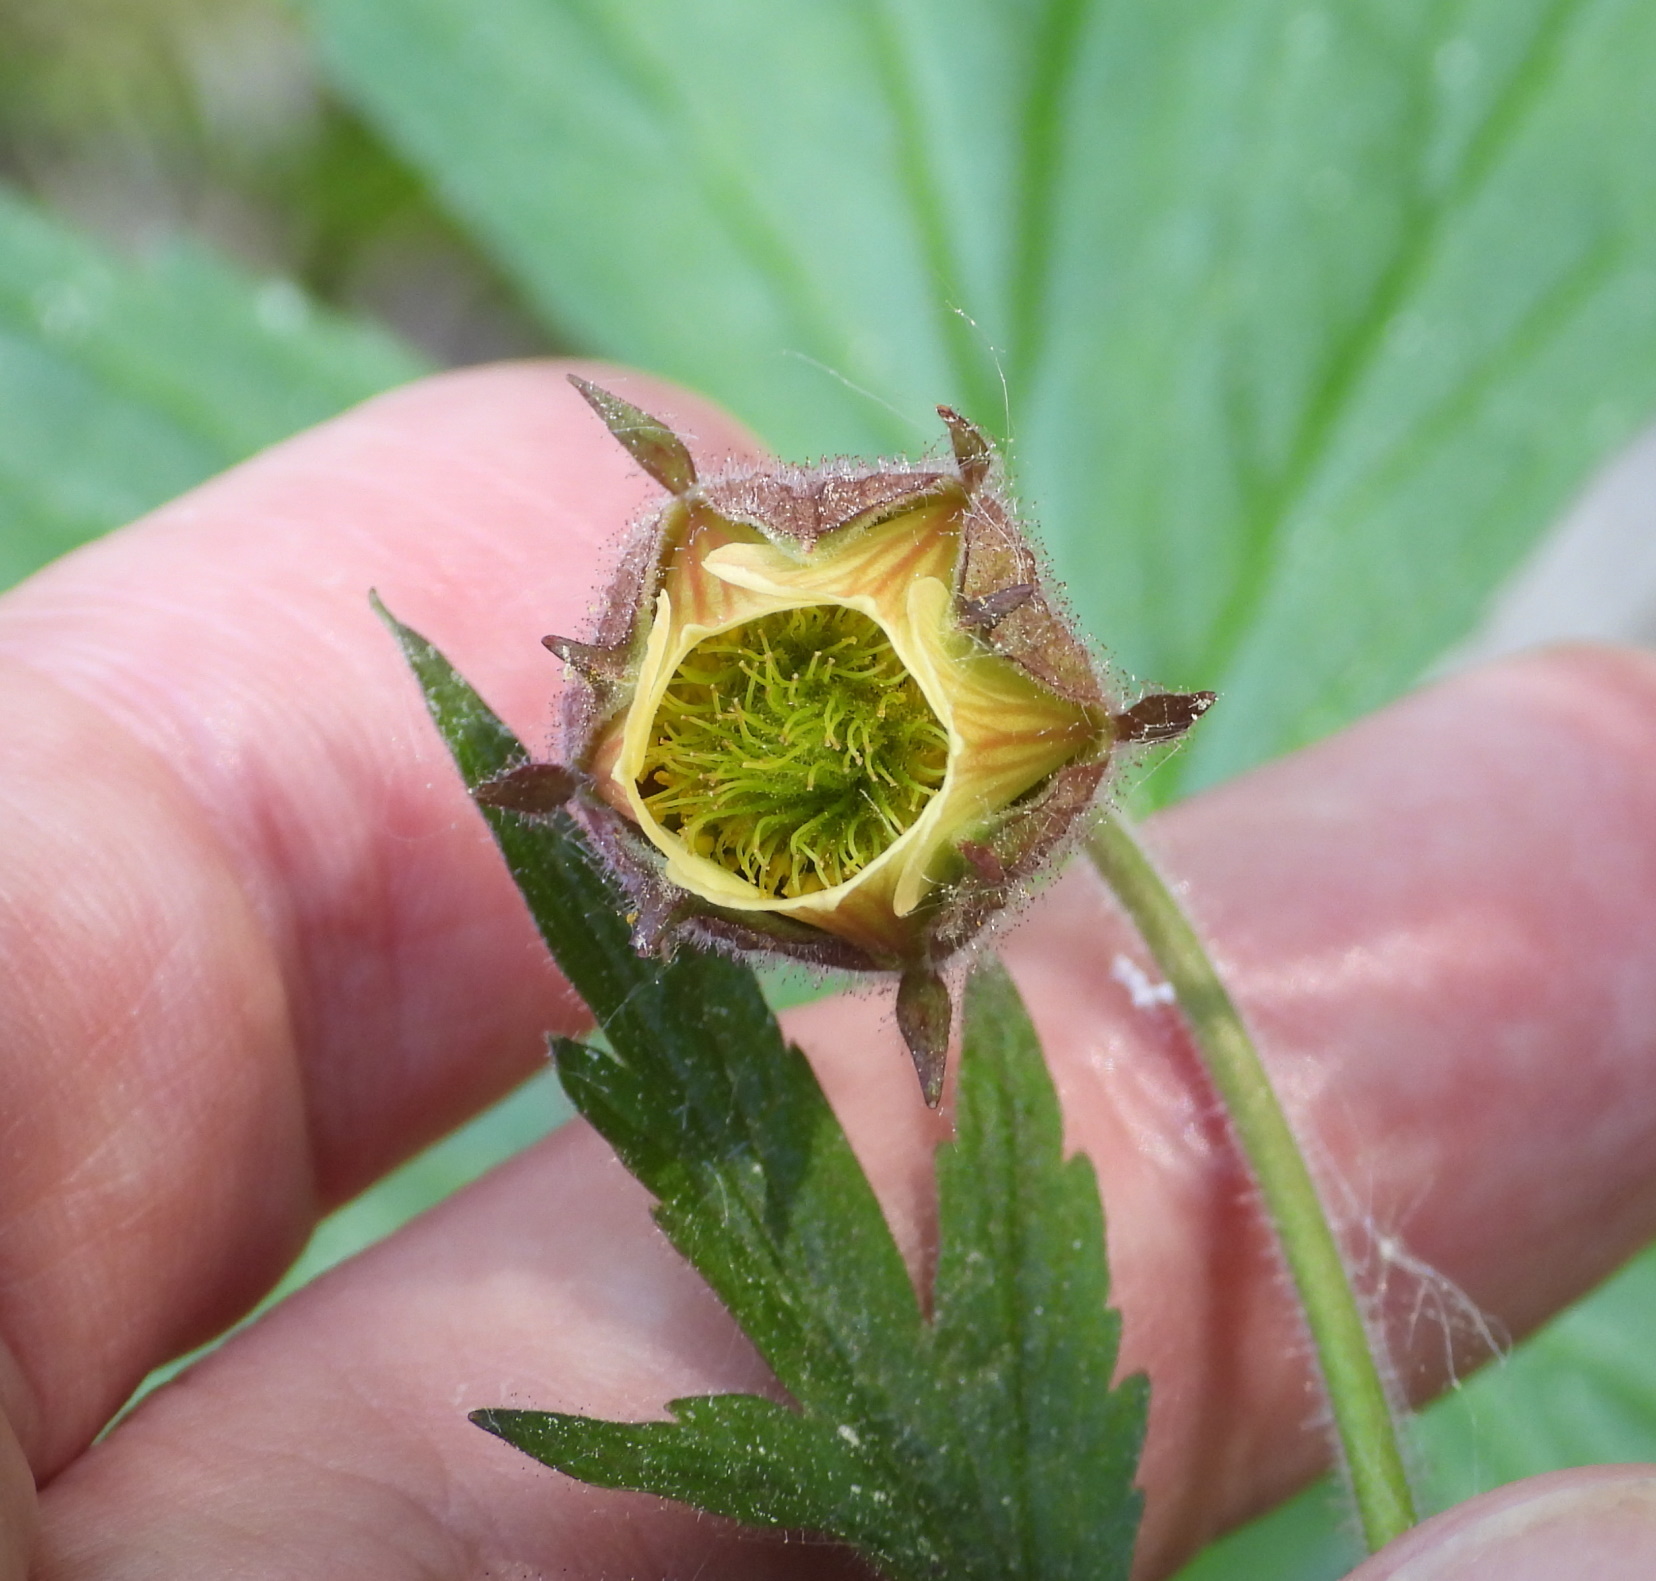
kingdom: Plantae
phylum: Tracheophyta
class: Magnoliopsida
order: Rosales
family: Rosaceae
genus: Geum
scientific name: Geum rivale
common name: Water avens
